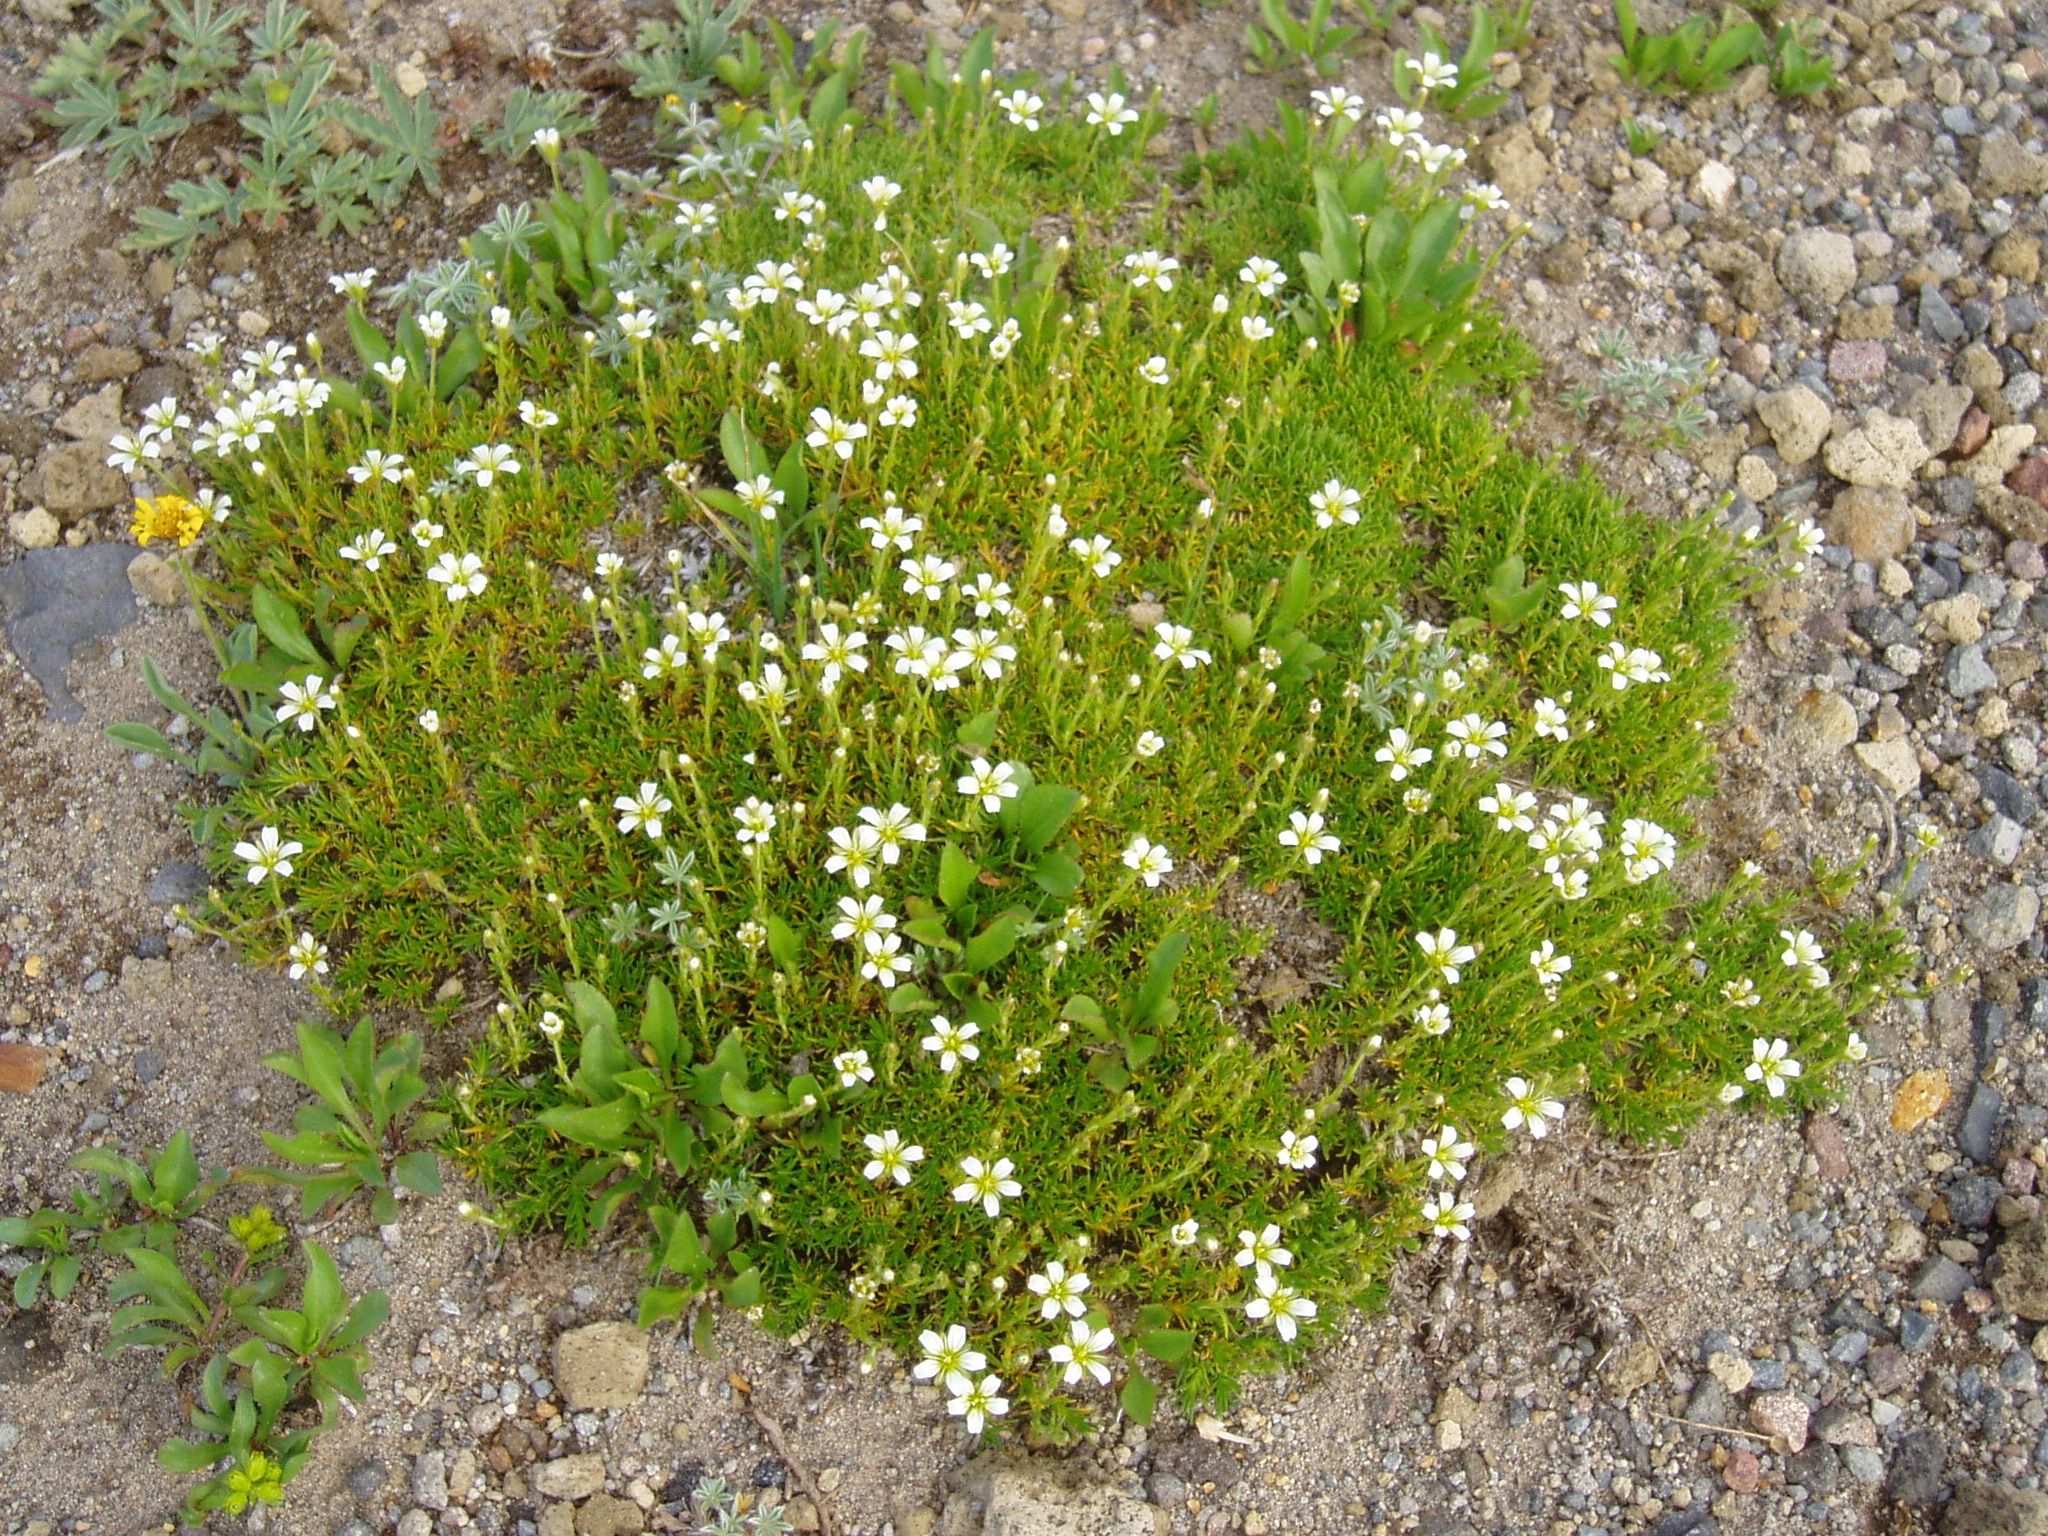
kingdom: Plantae
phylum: Tracheophyta
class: Magnoliopsida
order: Caryophyllales
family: Caryophyllaceae
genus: Eremogone
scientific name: Eremogone capillaris
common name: Slender mountain sandwort
